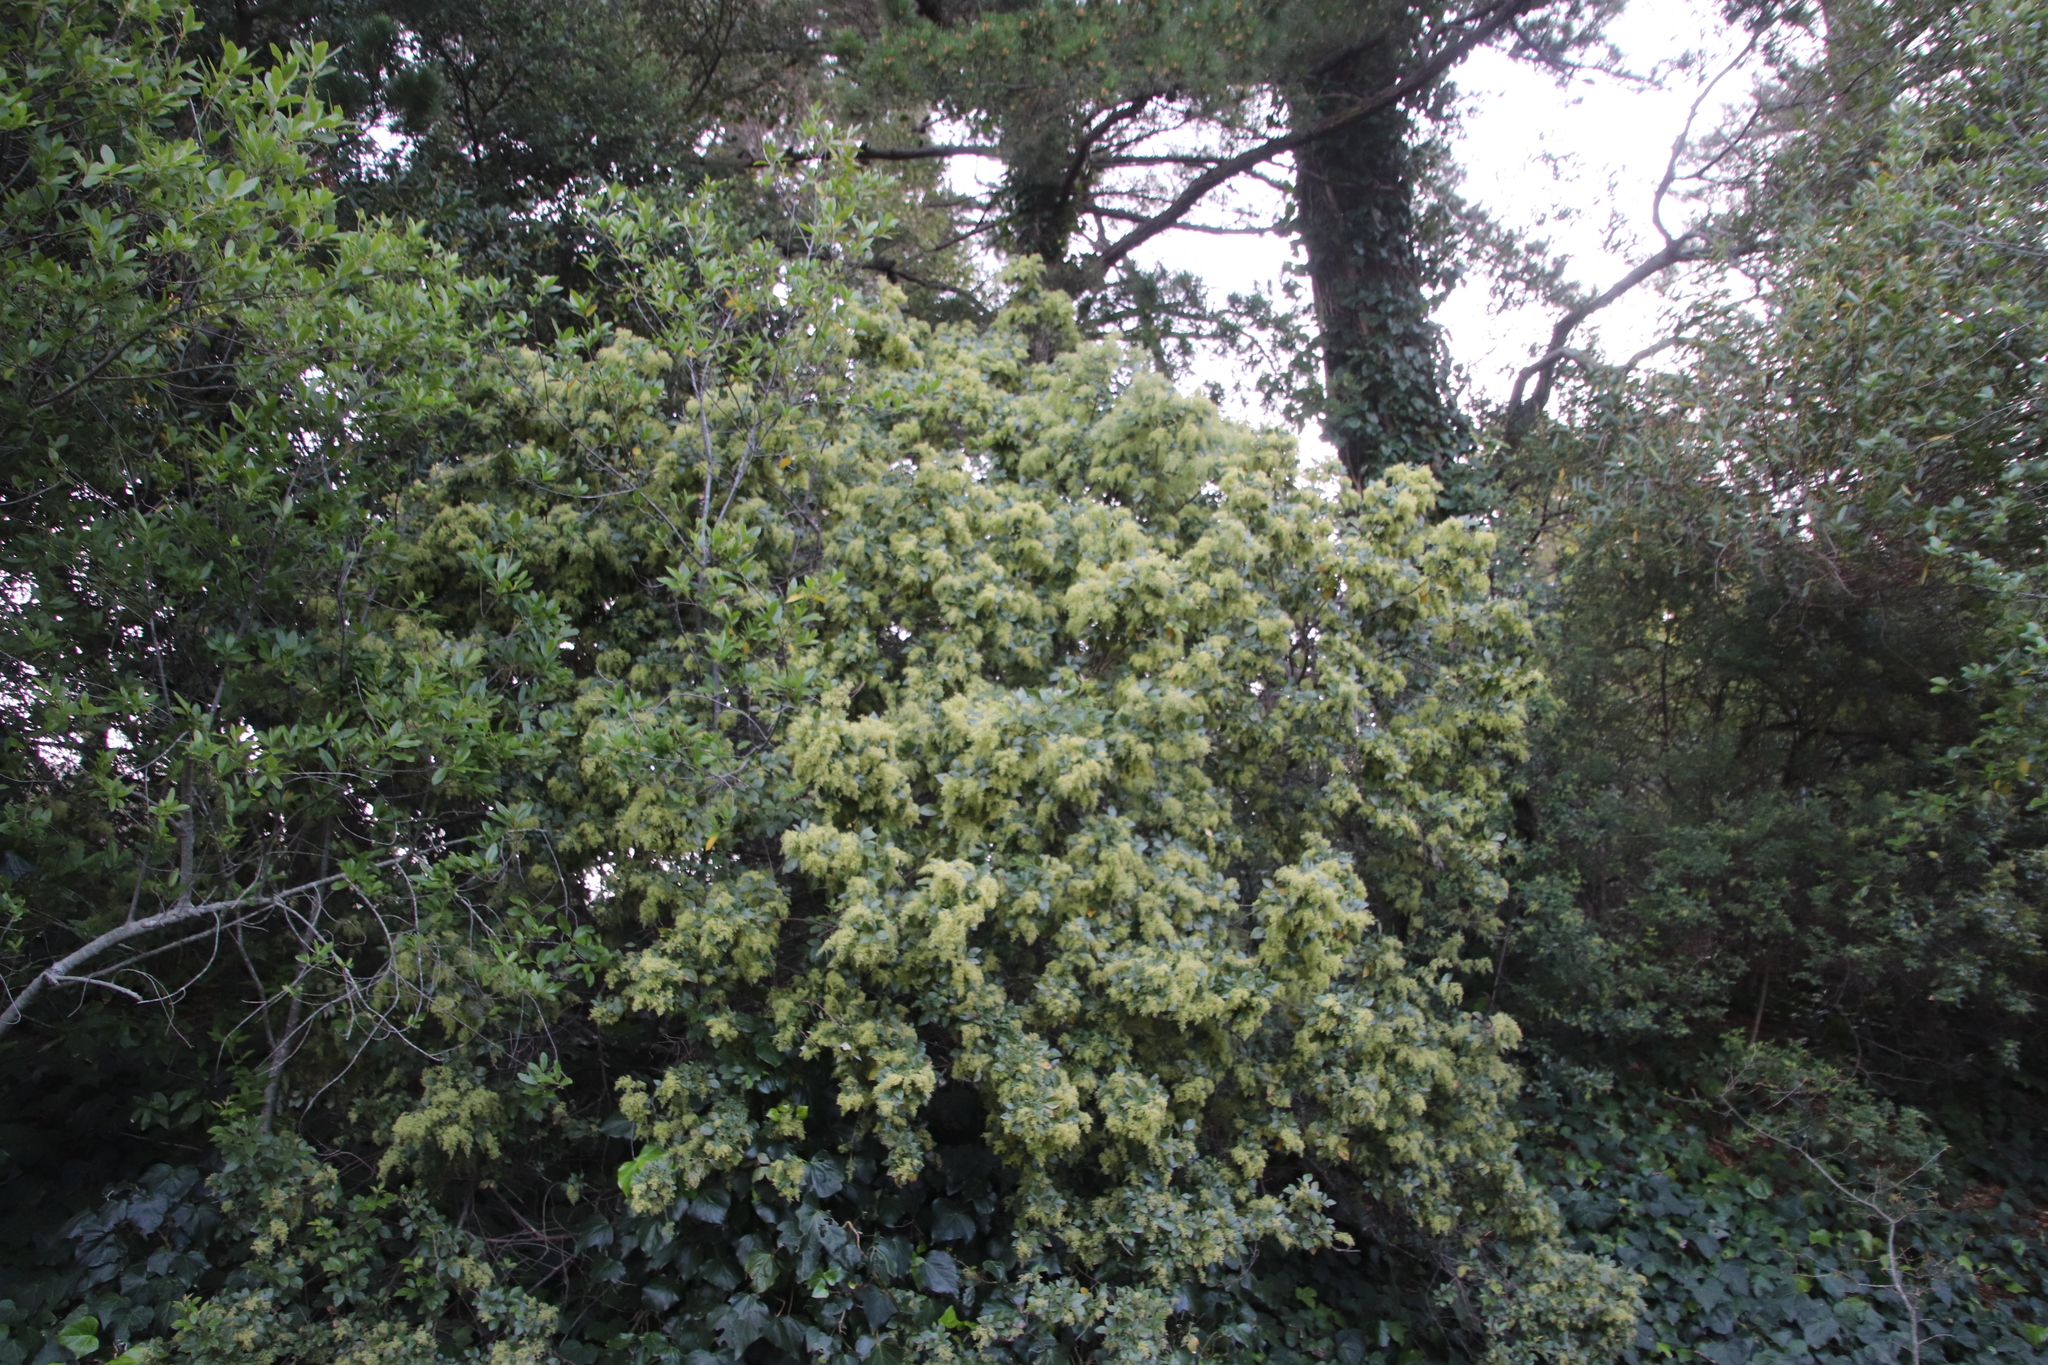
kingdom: Plantae
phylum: Tracheophyta
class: Magnoliopsida
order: Sapindales
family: Anacardiaceae
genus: Searsia
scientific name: Searsia tomentosa
